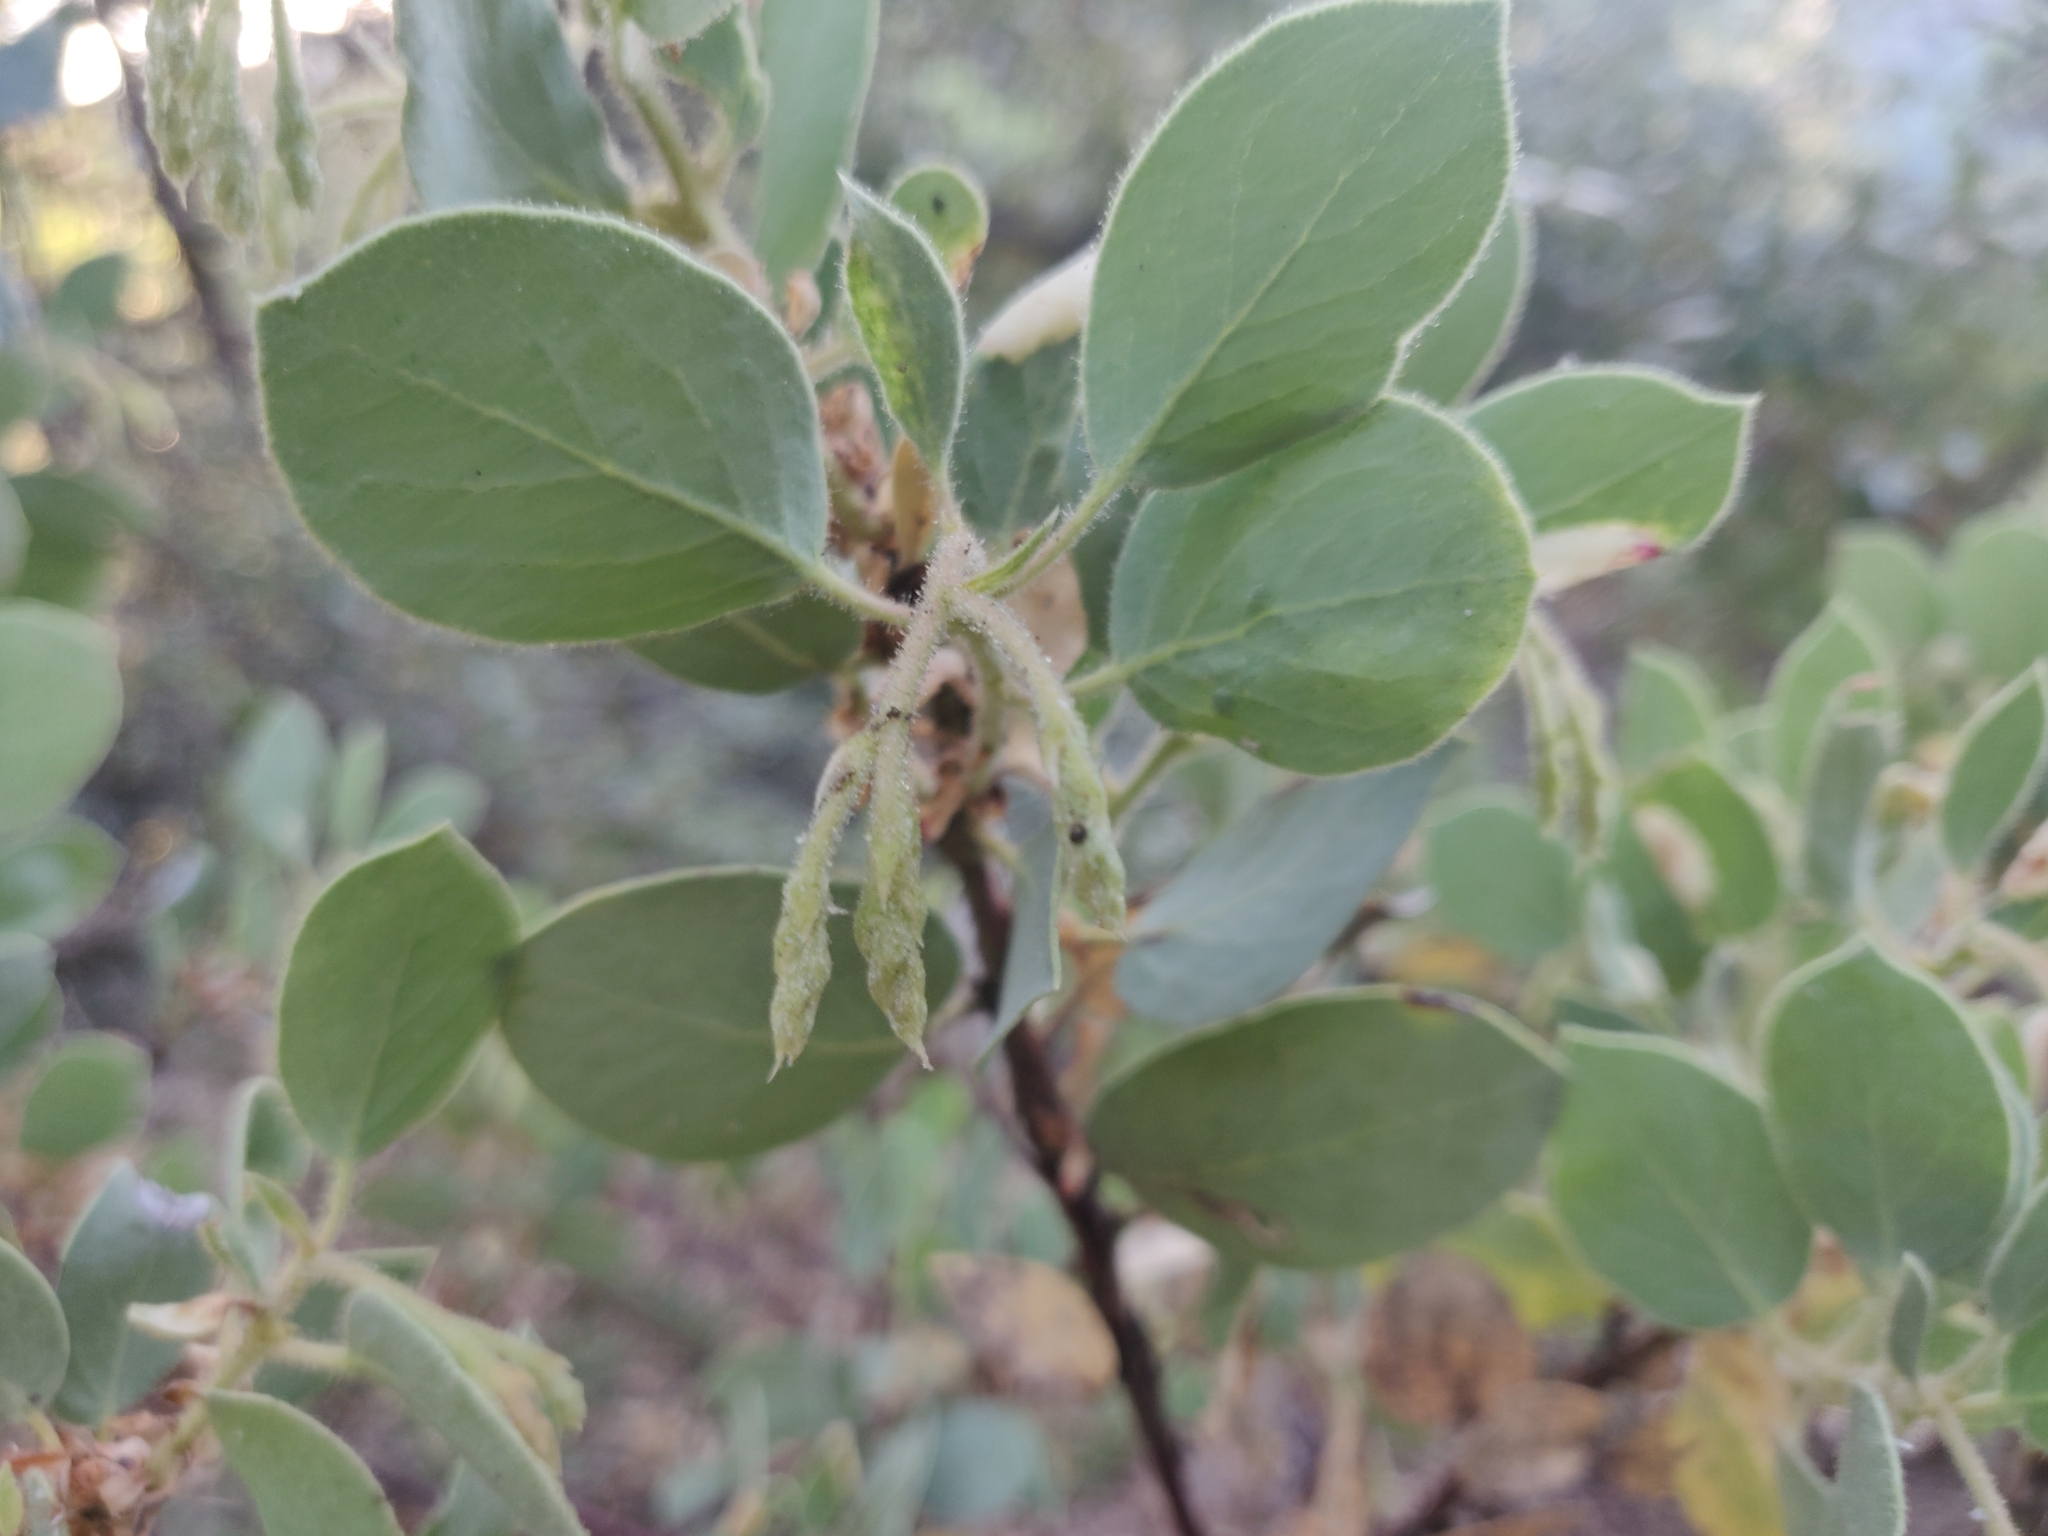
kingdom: Plantae
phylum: Tracheophyta
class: Magnoliopsida
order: Ericales
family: Ericaceae
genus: Arctostaphylos
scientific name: Arctostaphylos viscida
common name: White-leaf manzanita
